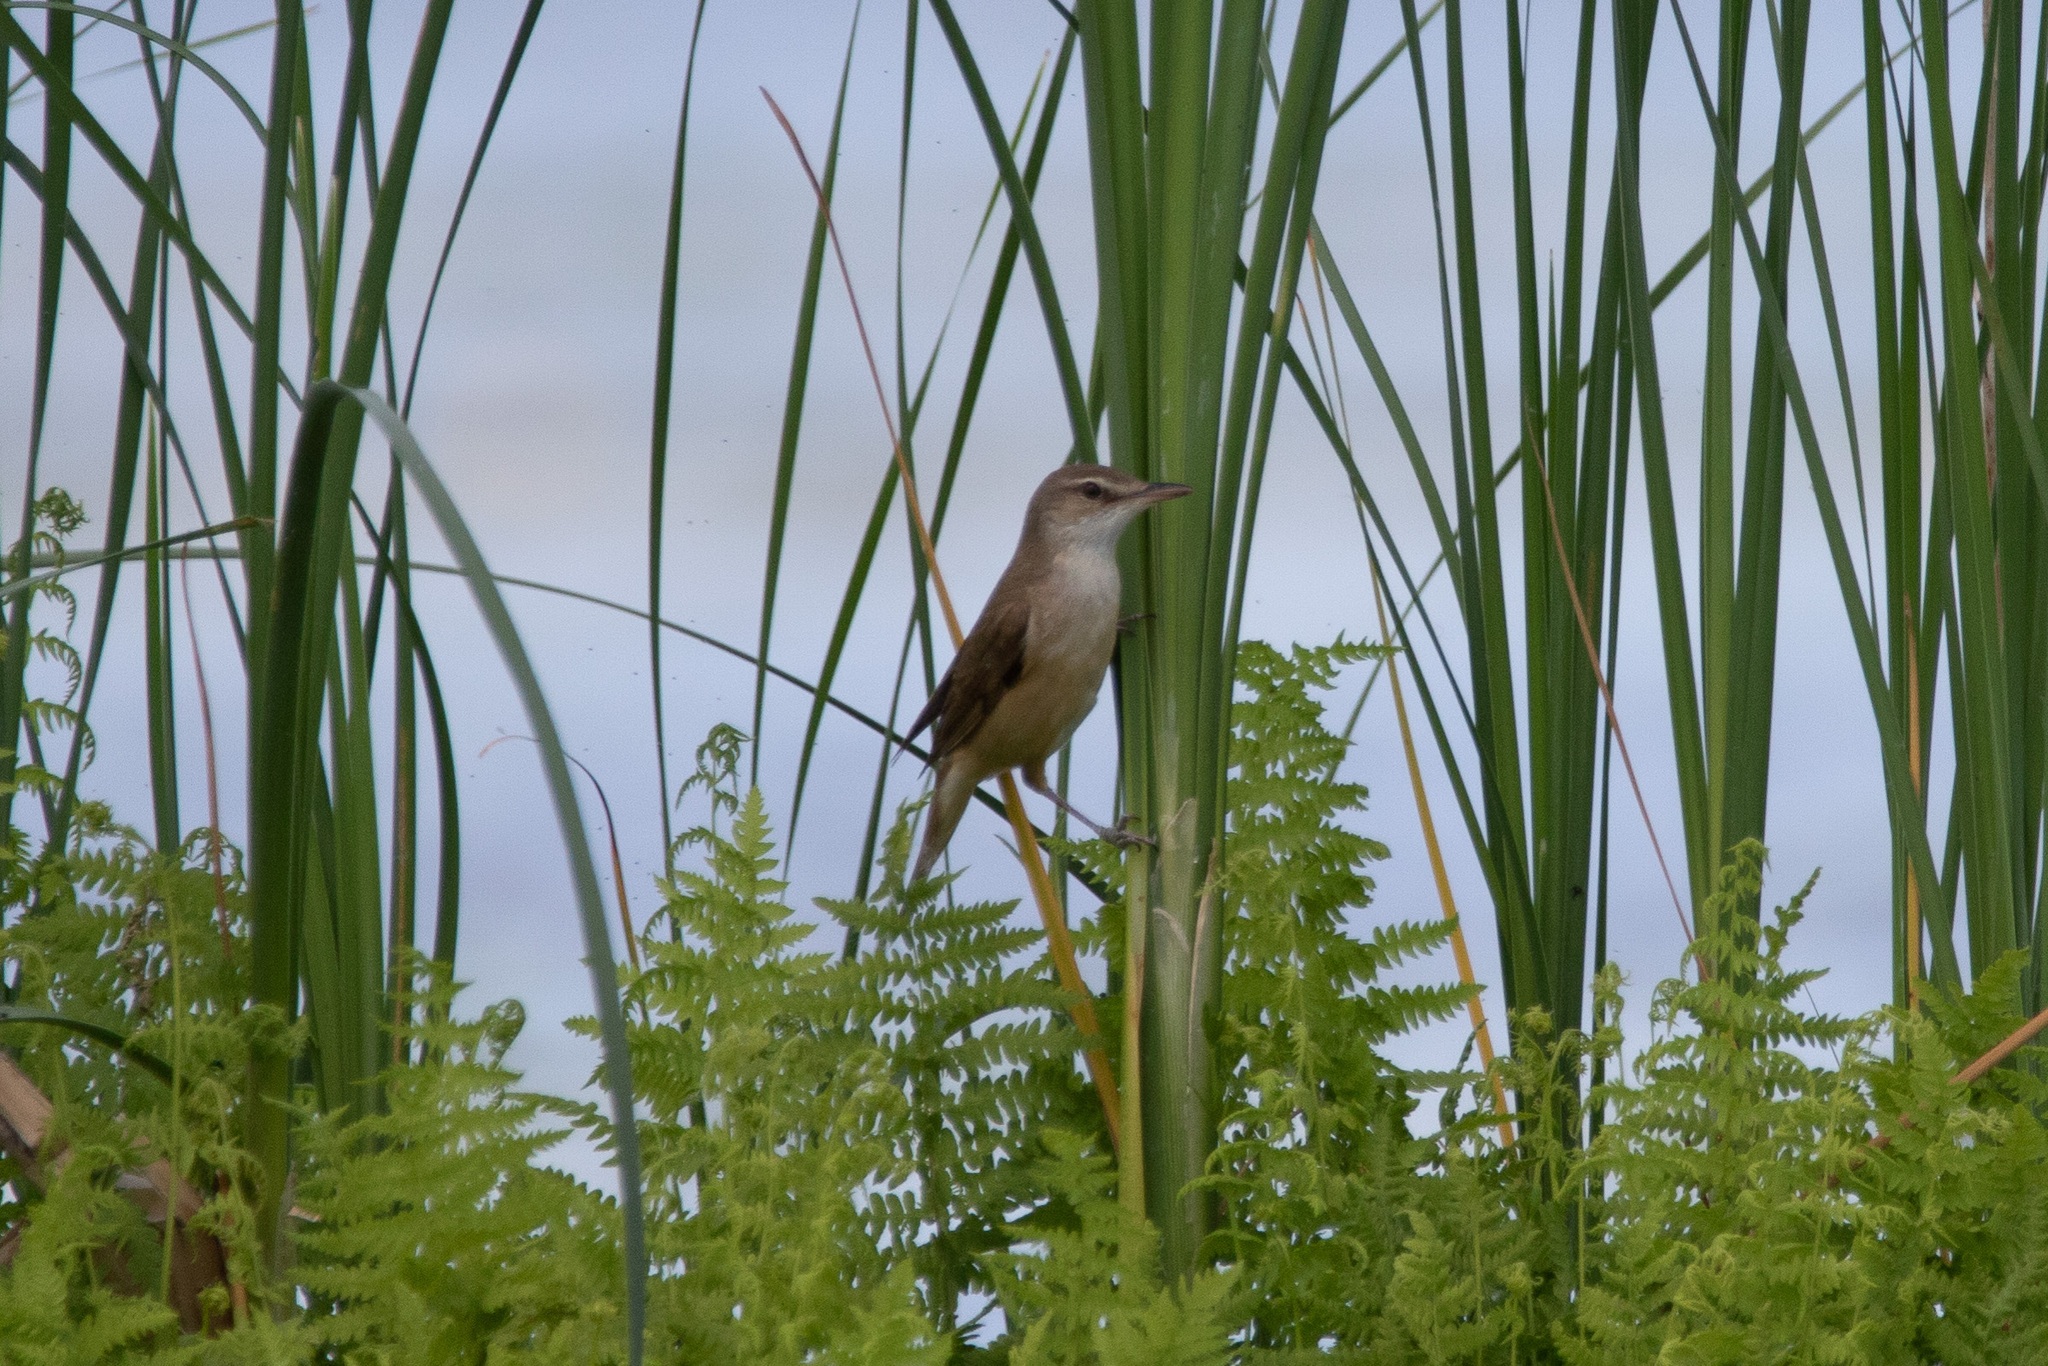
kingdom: Animalia
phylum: Chordata
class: Aves
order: Passeriformes
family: Acrocephalidae
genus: Acrocephalus
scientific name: Acrocephalus arundinaceus
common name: Great reed warbler
